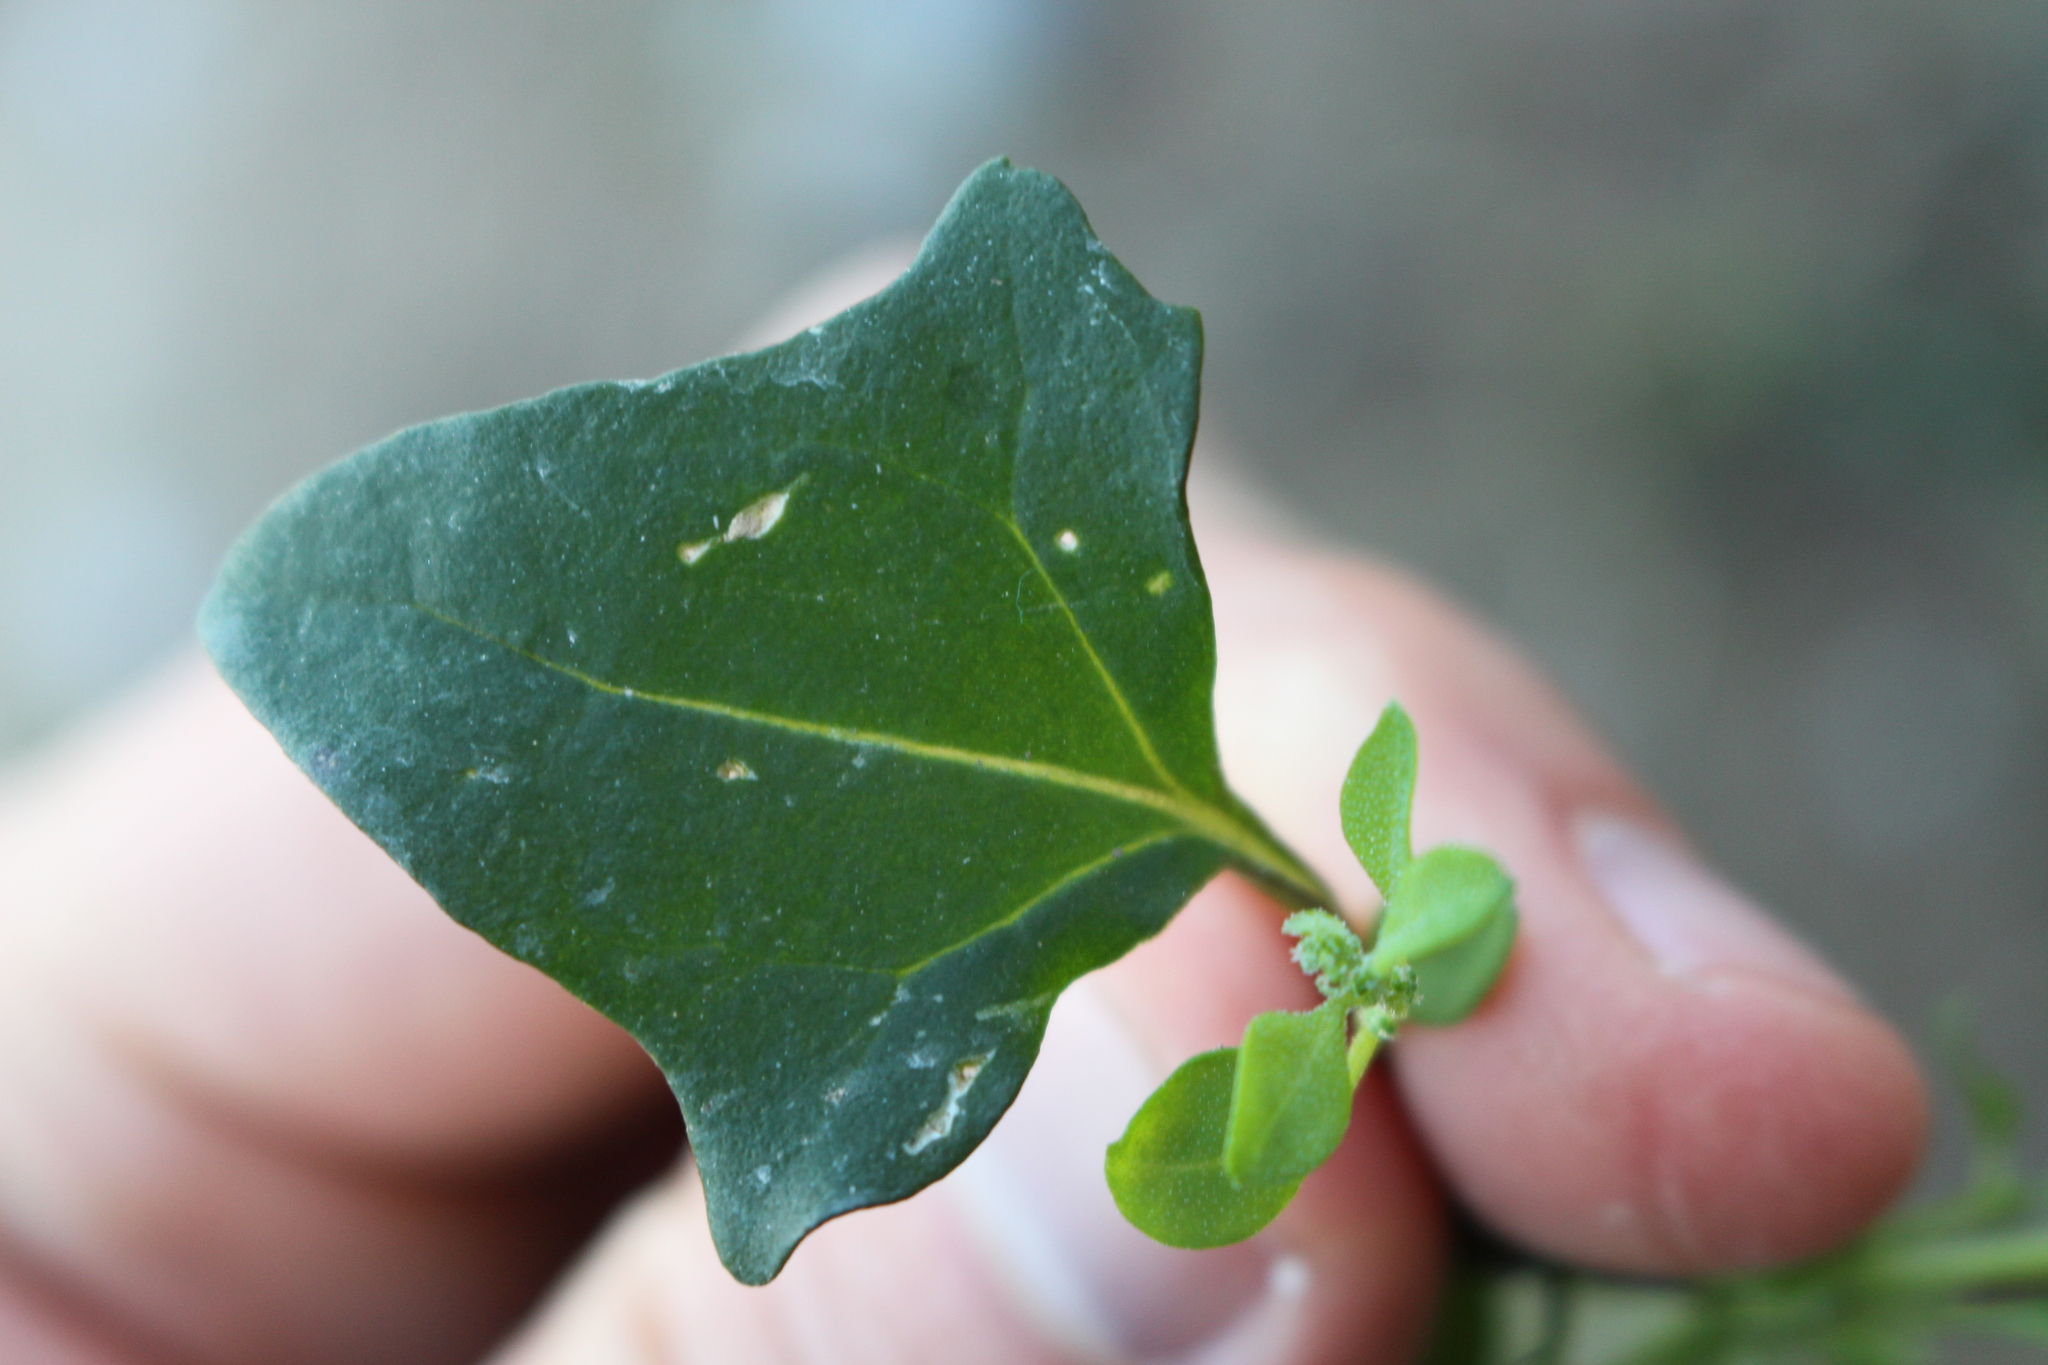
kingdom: Plantae
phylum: Tracheophyta
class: Magnoliopsida
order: Caryophyllales
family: Amaranthaceae
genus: Atriplex
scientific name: Atriplex prostrata
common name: Spear-leaved orache
